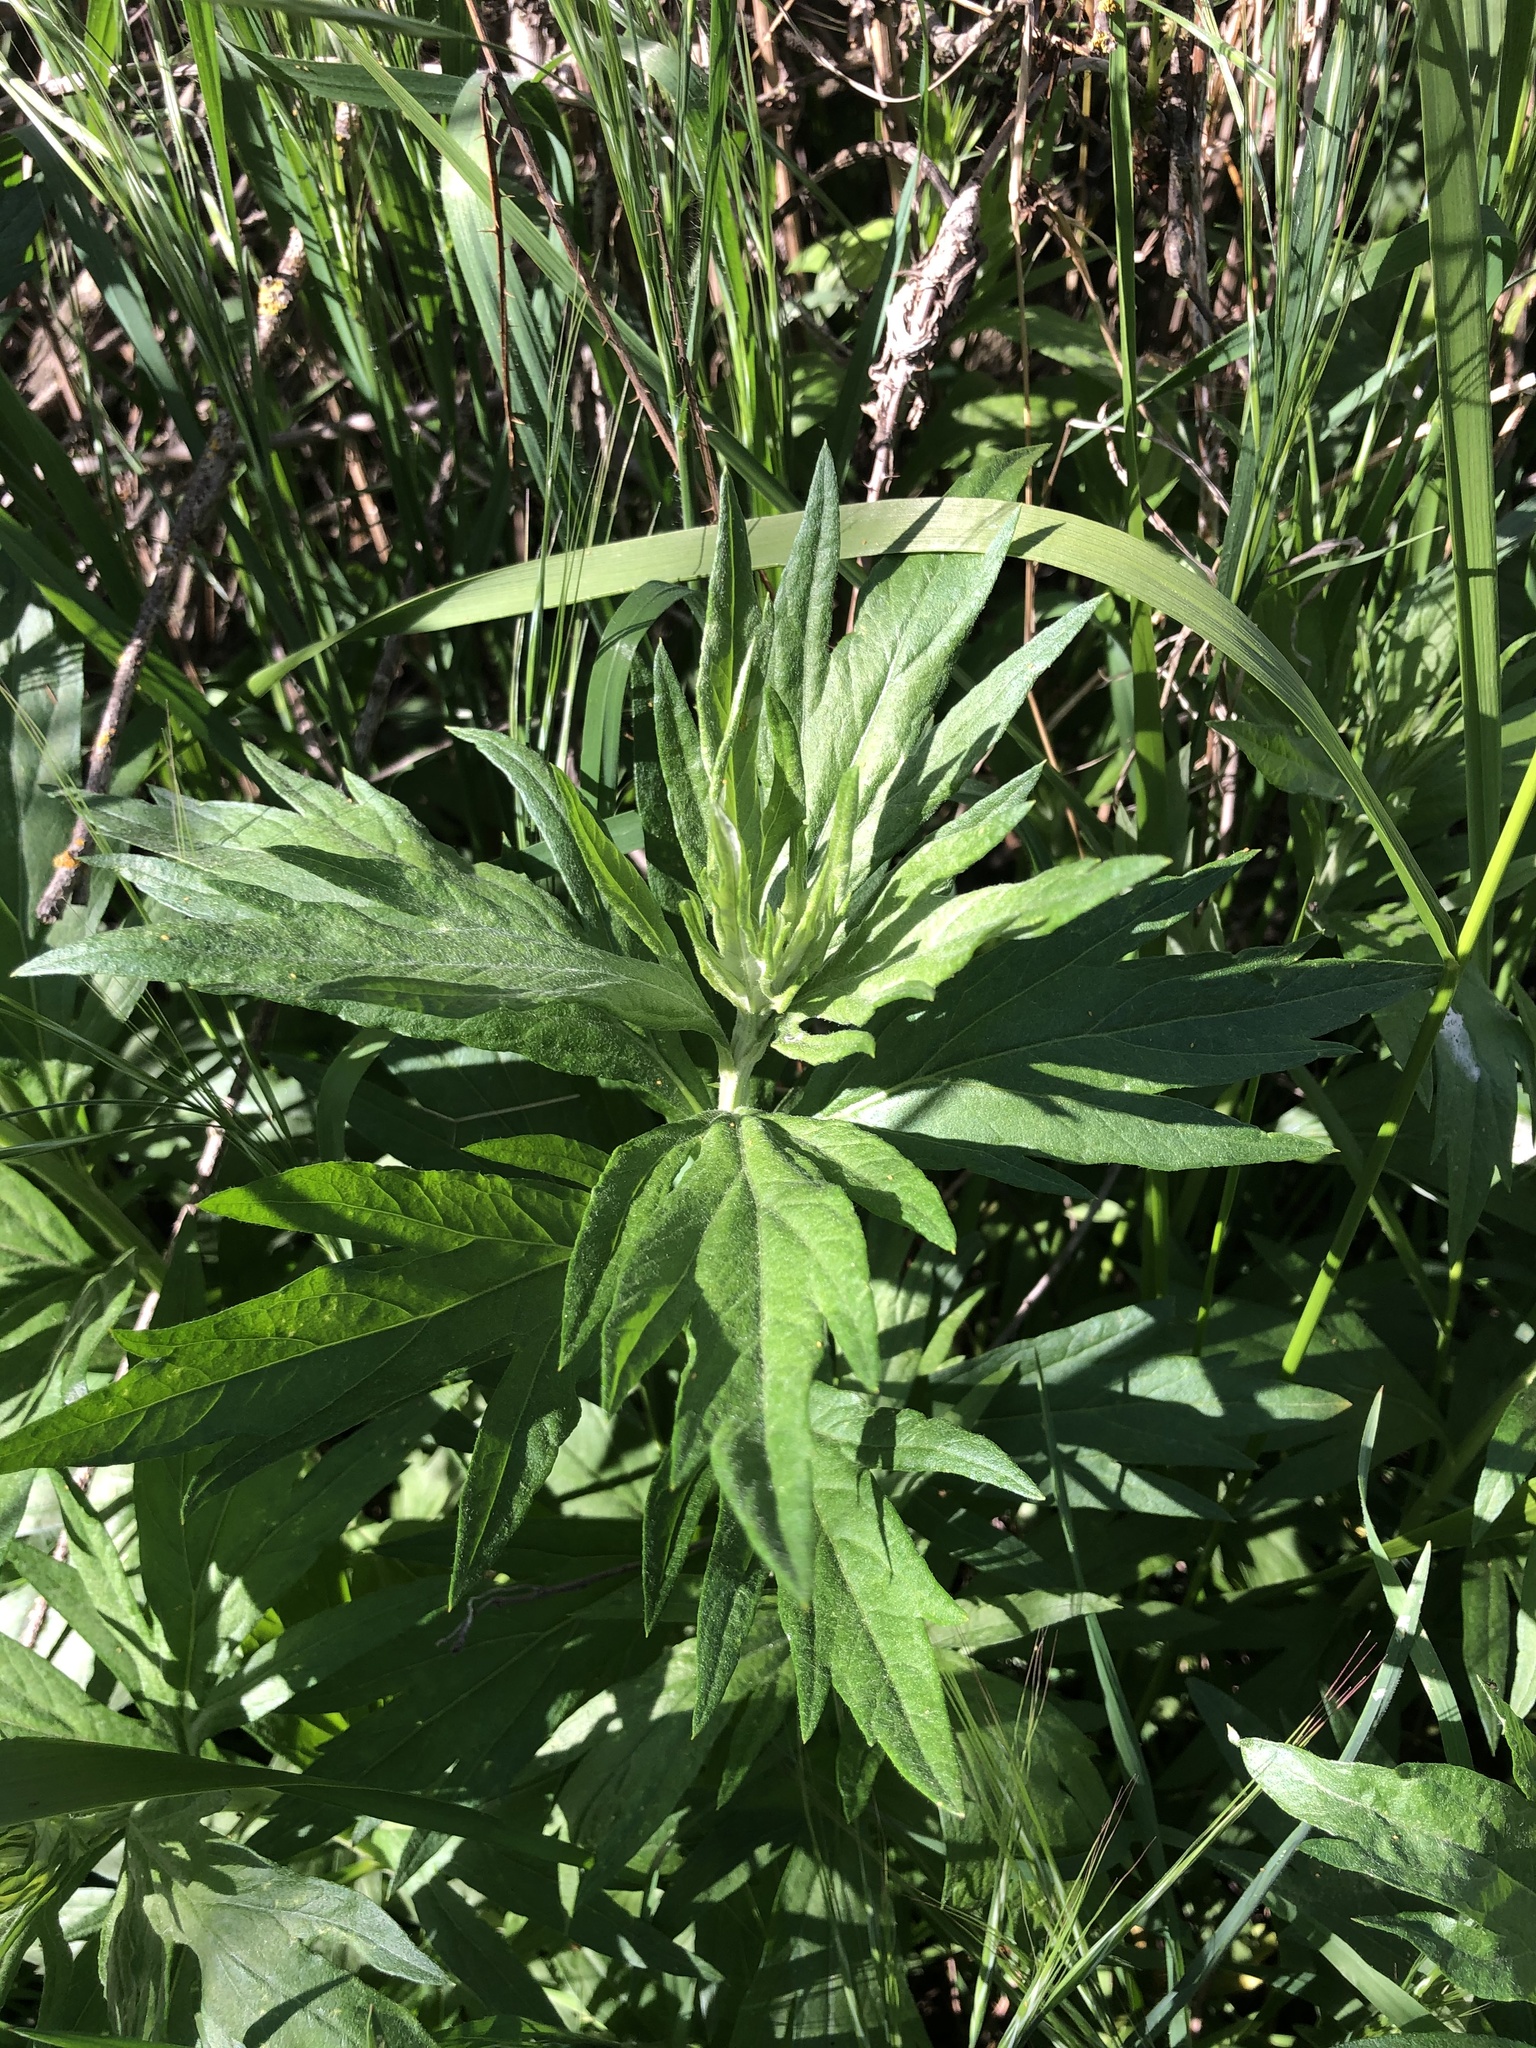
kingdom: Plantae
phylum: Tracheophyta
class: Magnoliopsida
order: Asterales
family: Asteraceae
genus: Artemisia
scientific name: Artemisia douglasiana
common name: Northwest mugwort
